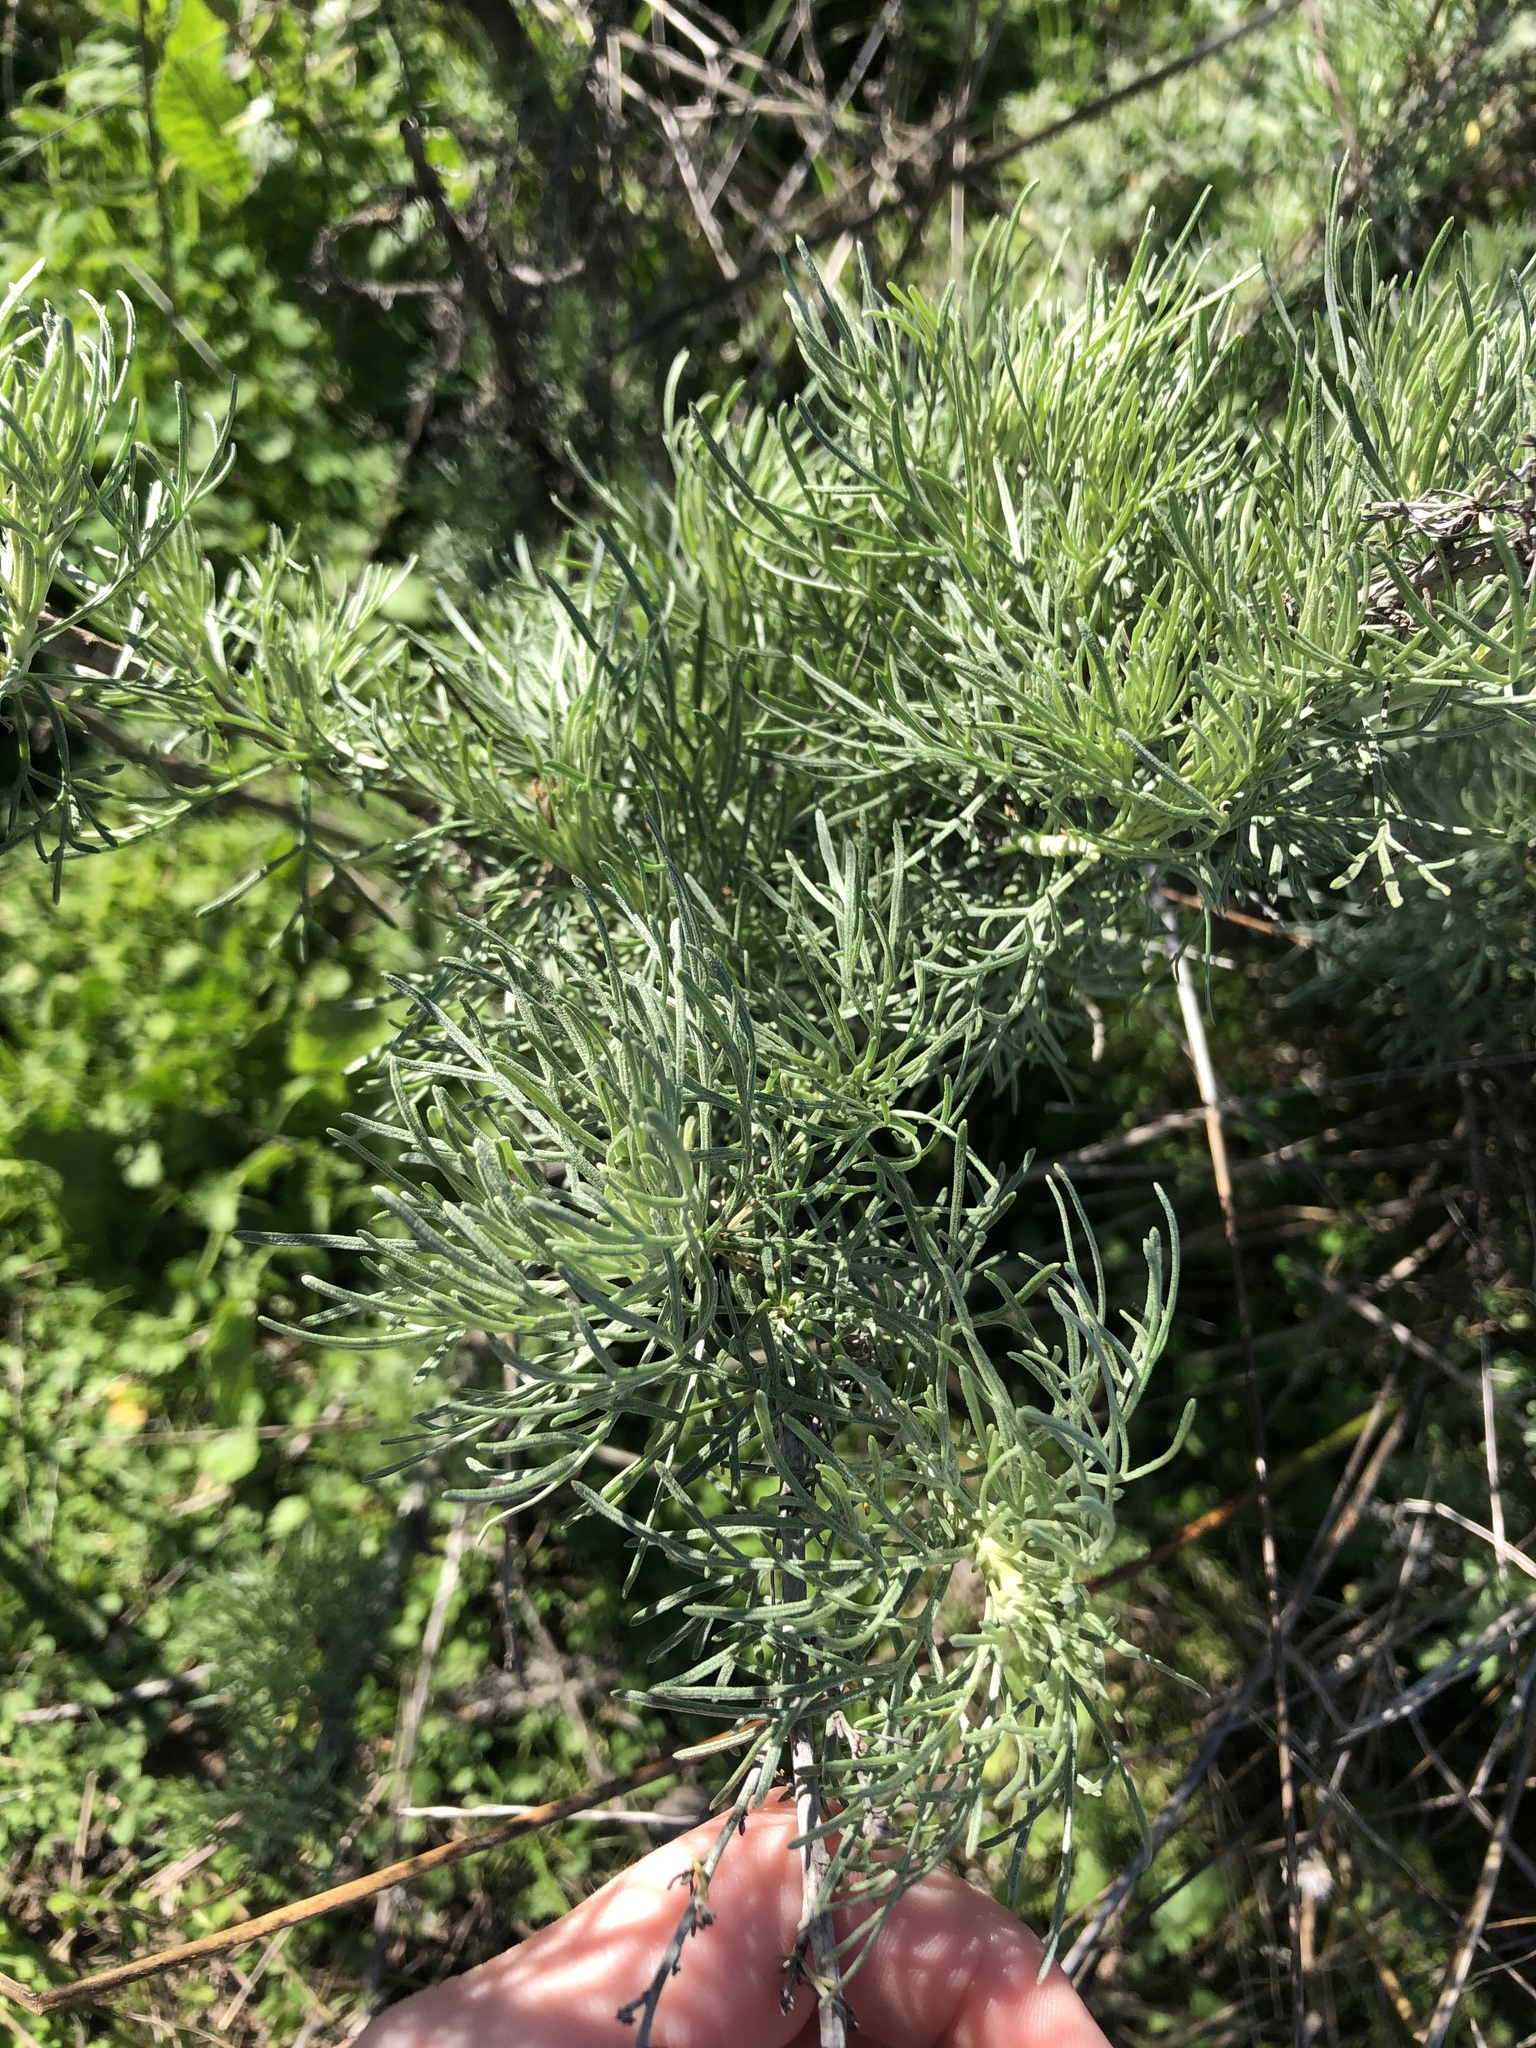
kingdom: Plantae
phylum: Tracheophyta
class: Magnoliopsida
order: Asterales
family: Asteraceae
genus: Artemisia
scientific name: Artemisia californica
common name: California sagebrush
